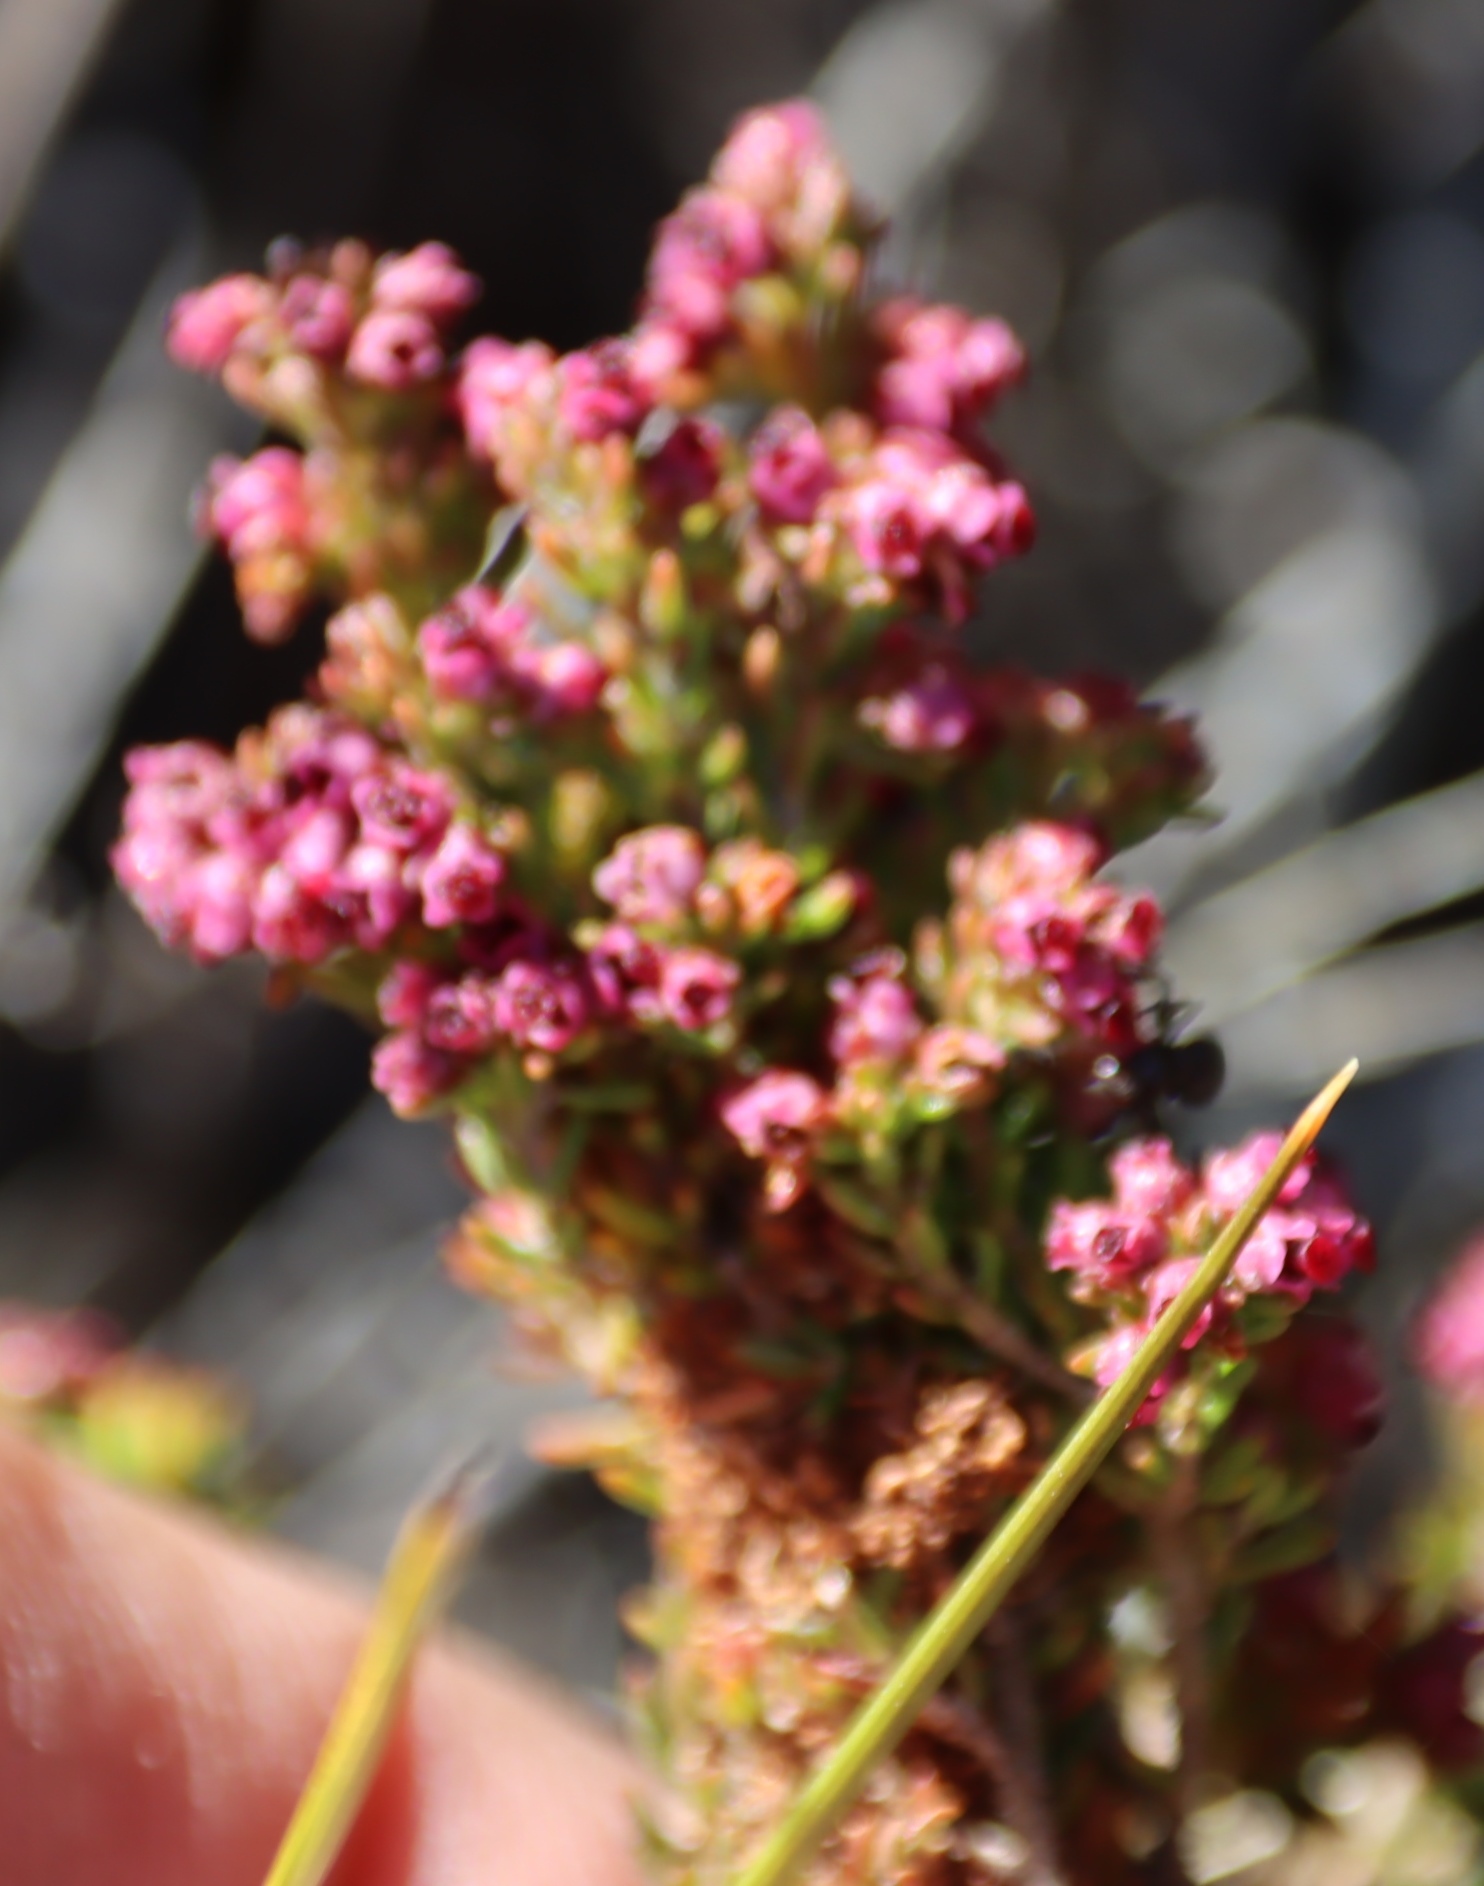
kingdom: Plantae
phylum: Tracheophyta
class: Magnoliopsida
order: Ericales
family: Ericaceae
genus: Erica
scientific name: Erica hispidula
